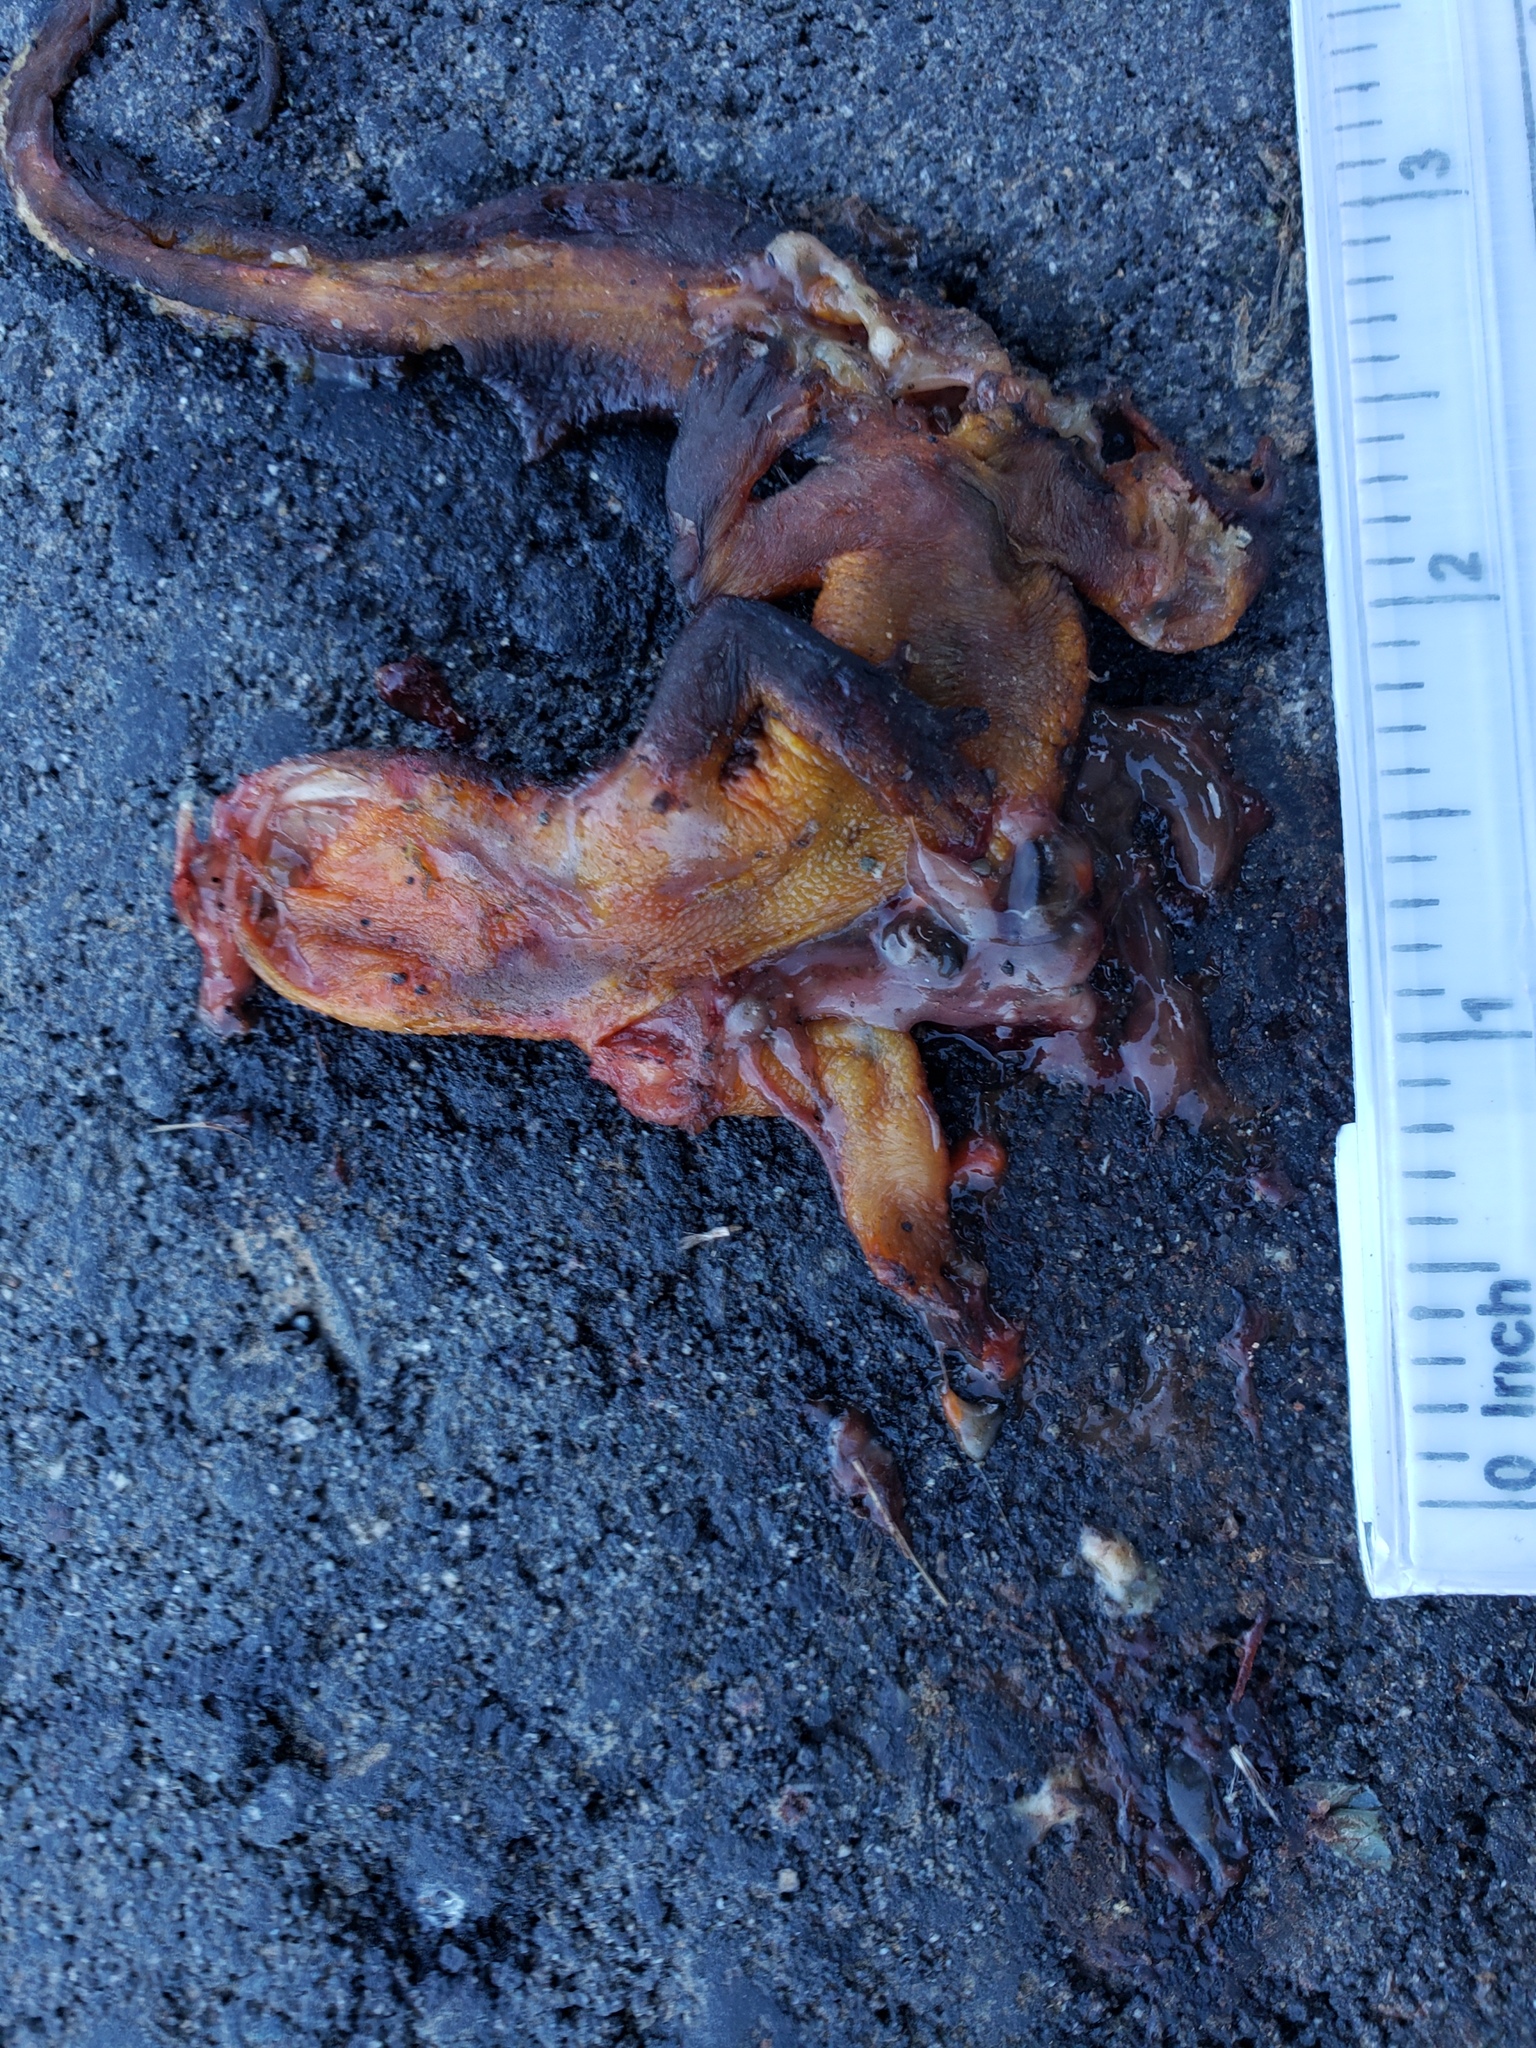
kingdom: Animalia
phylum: Chordata
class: Amphibia
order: Caudata
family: Salamandridae
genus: Taricha
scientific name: Taricha
